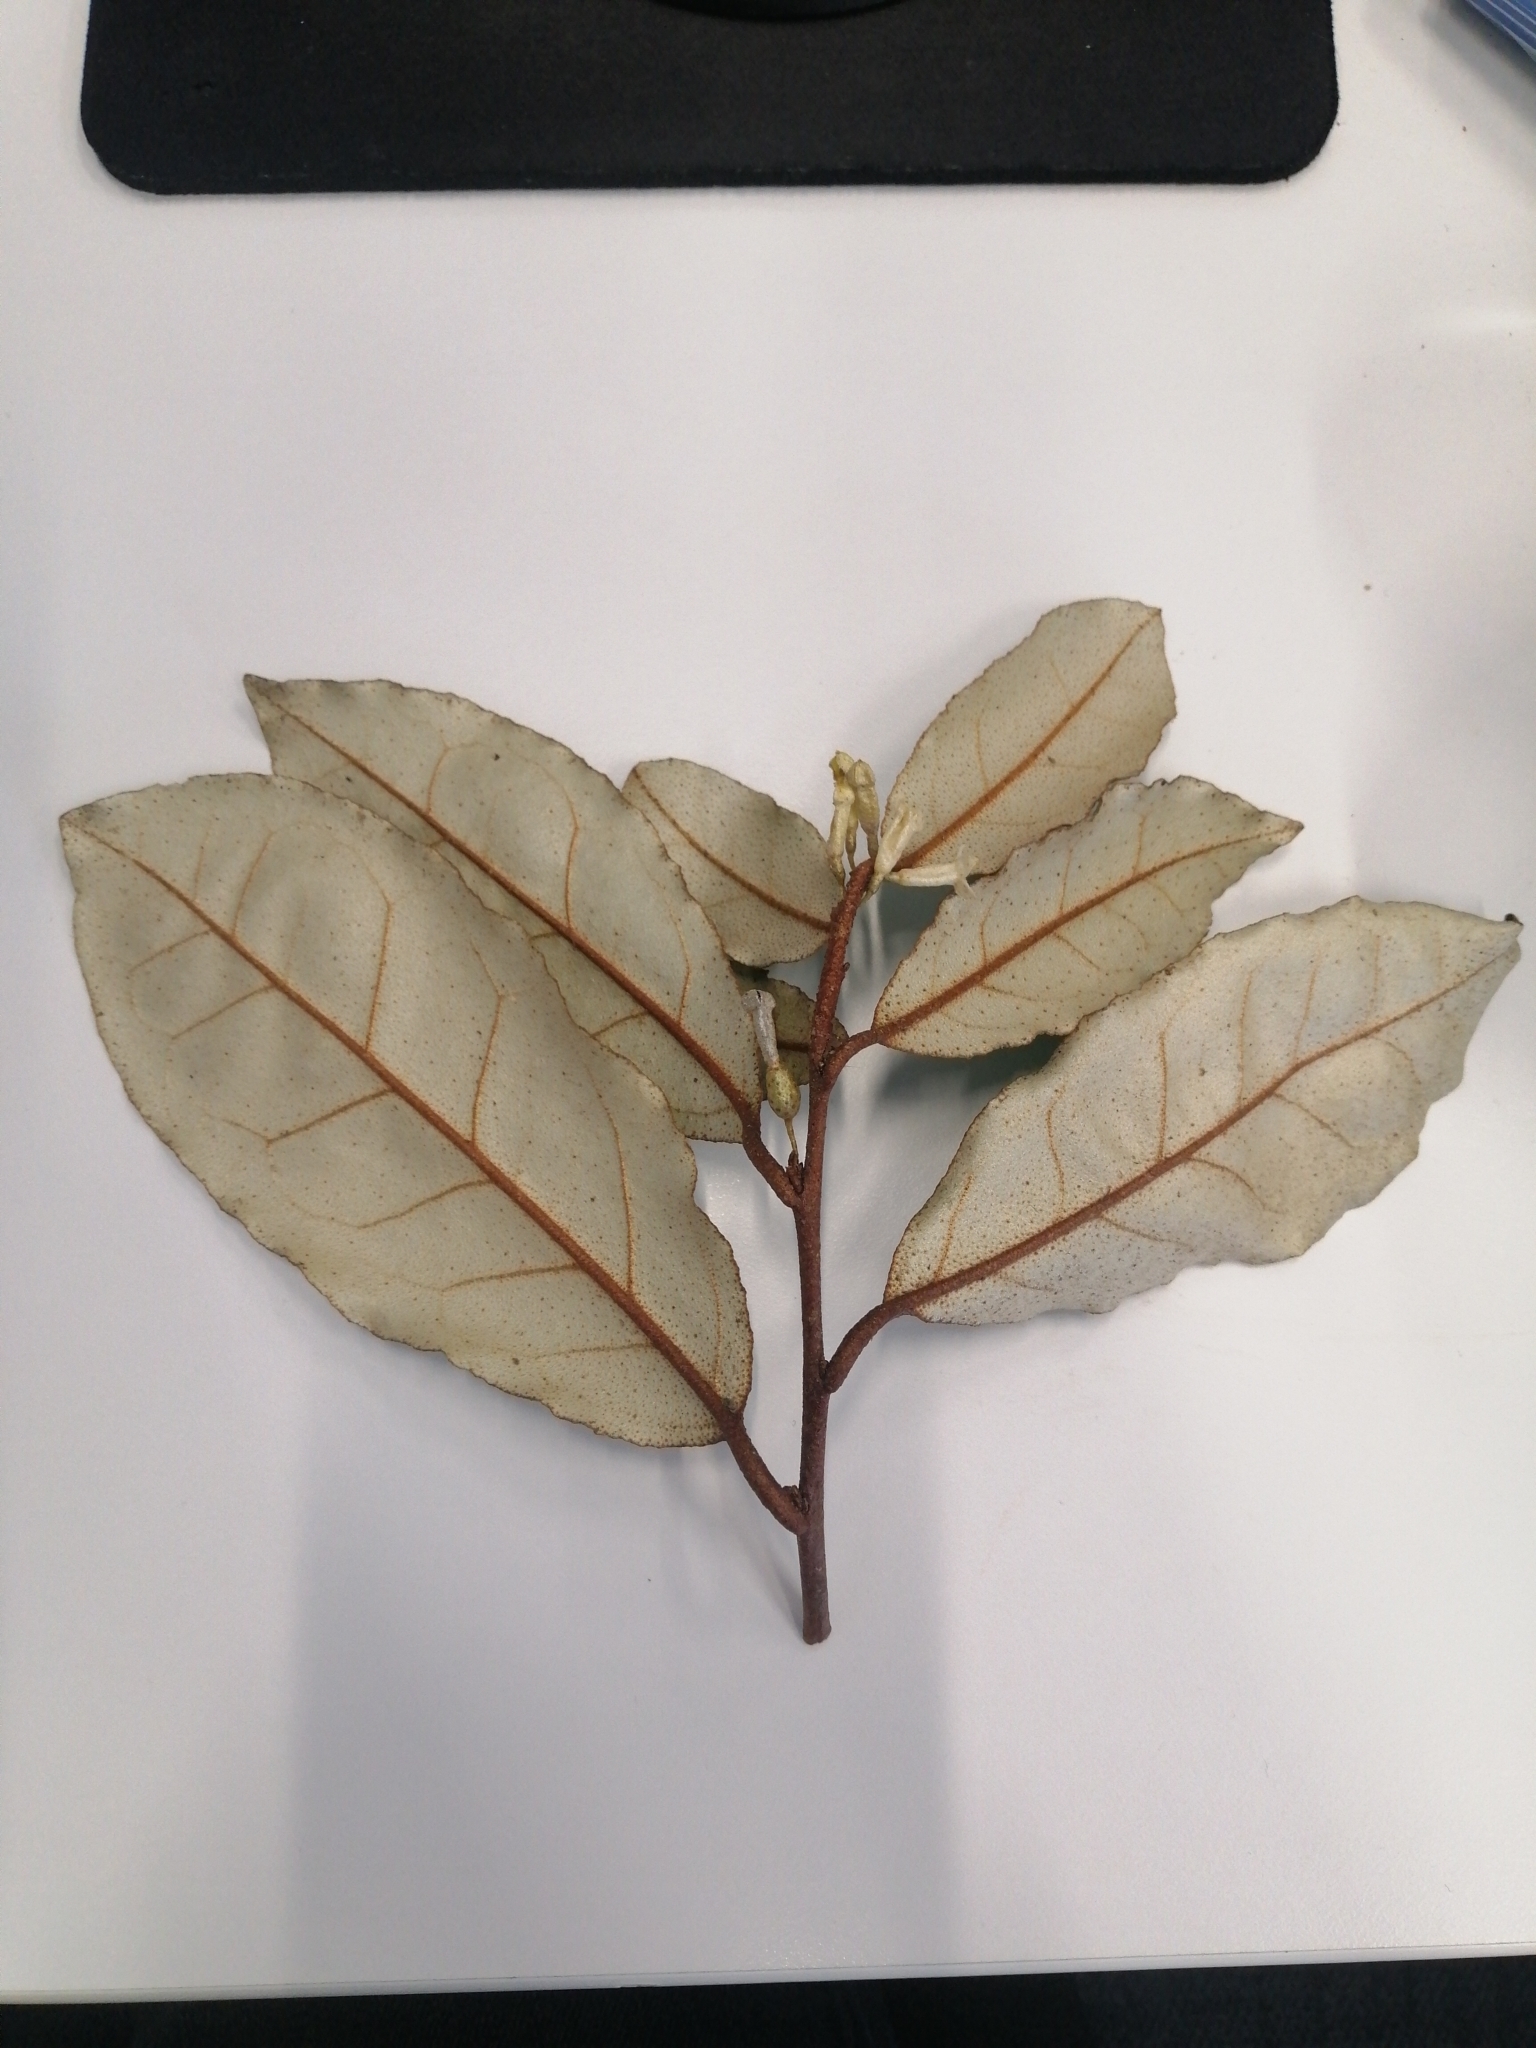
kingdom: Plantae
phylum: Tracheophyta
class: Magnoliopsida
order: Rosales
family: Elaeagnaceae
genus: Elaeagnus
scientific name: Elaeagnus reflexa
